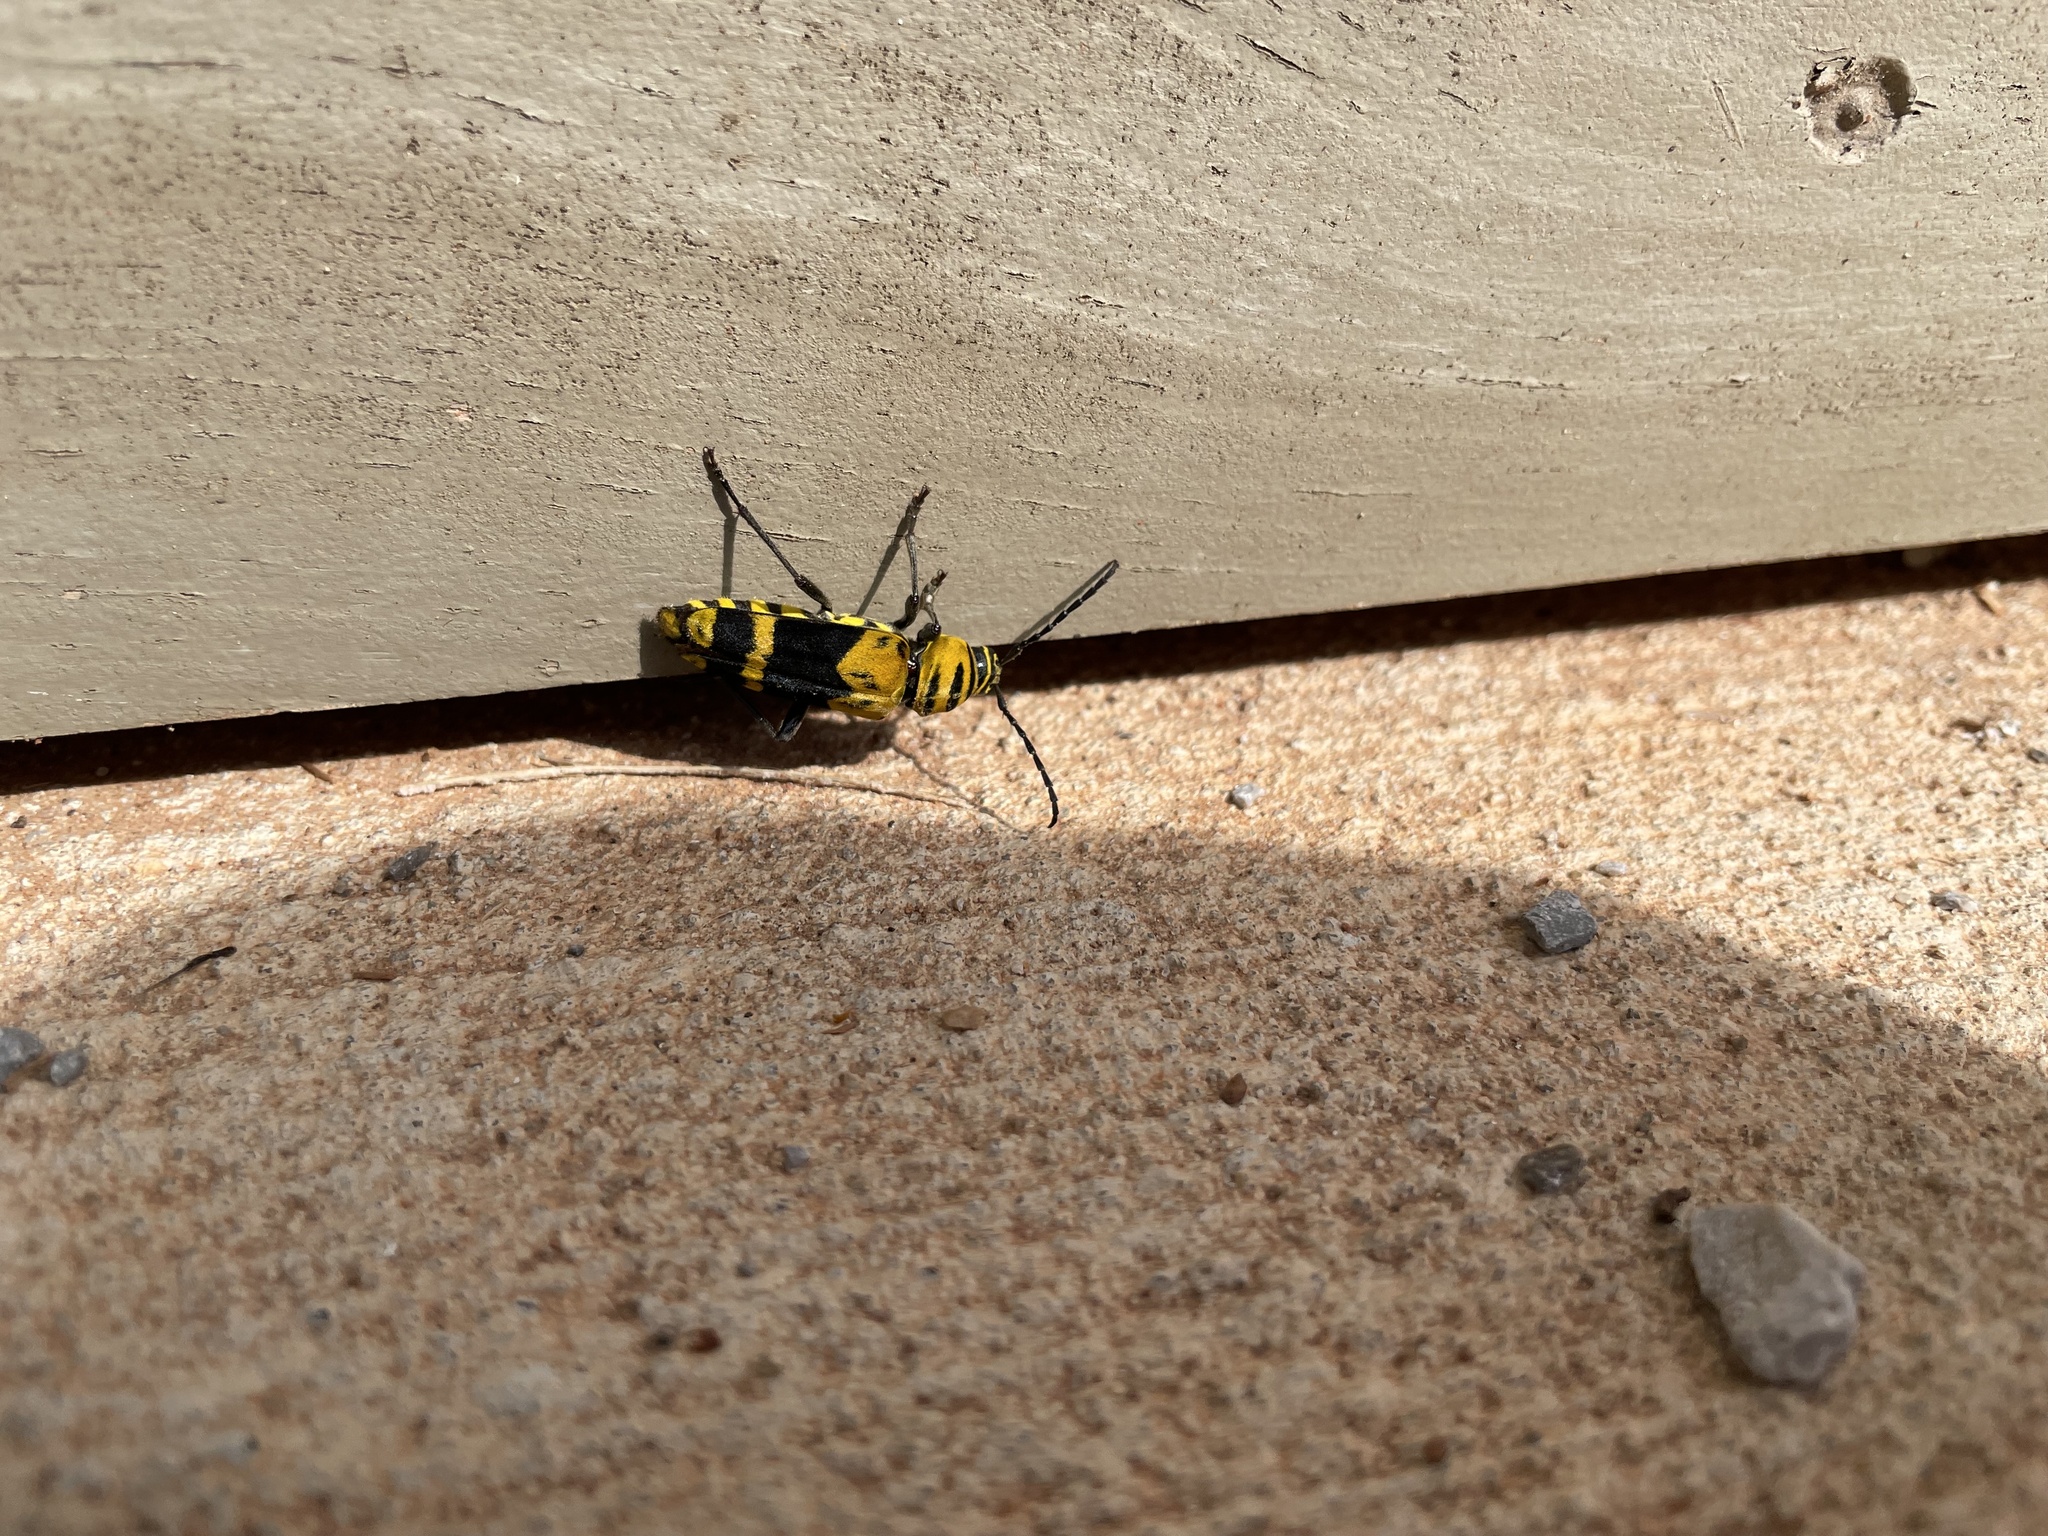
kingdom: Animalia
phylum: Arthropoda
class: Insecta
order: Coleoptera
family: Cerambycidae
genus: Megacyllene
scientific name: Megacyllene decora
